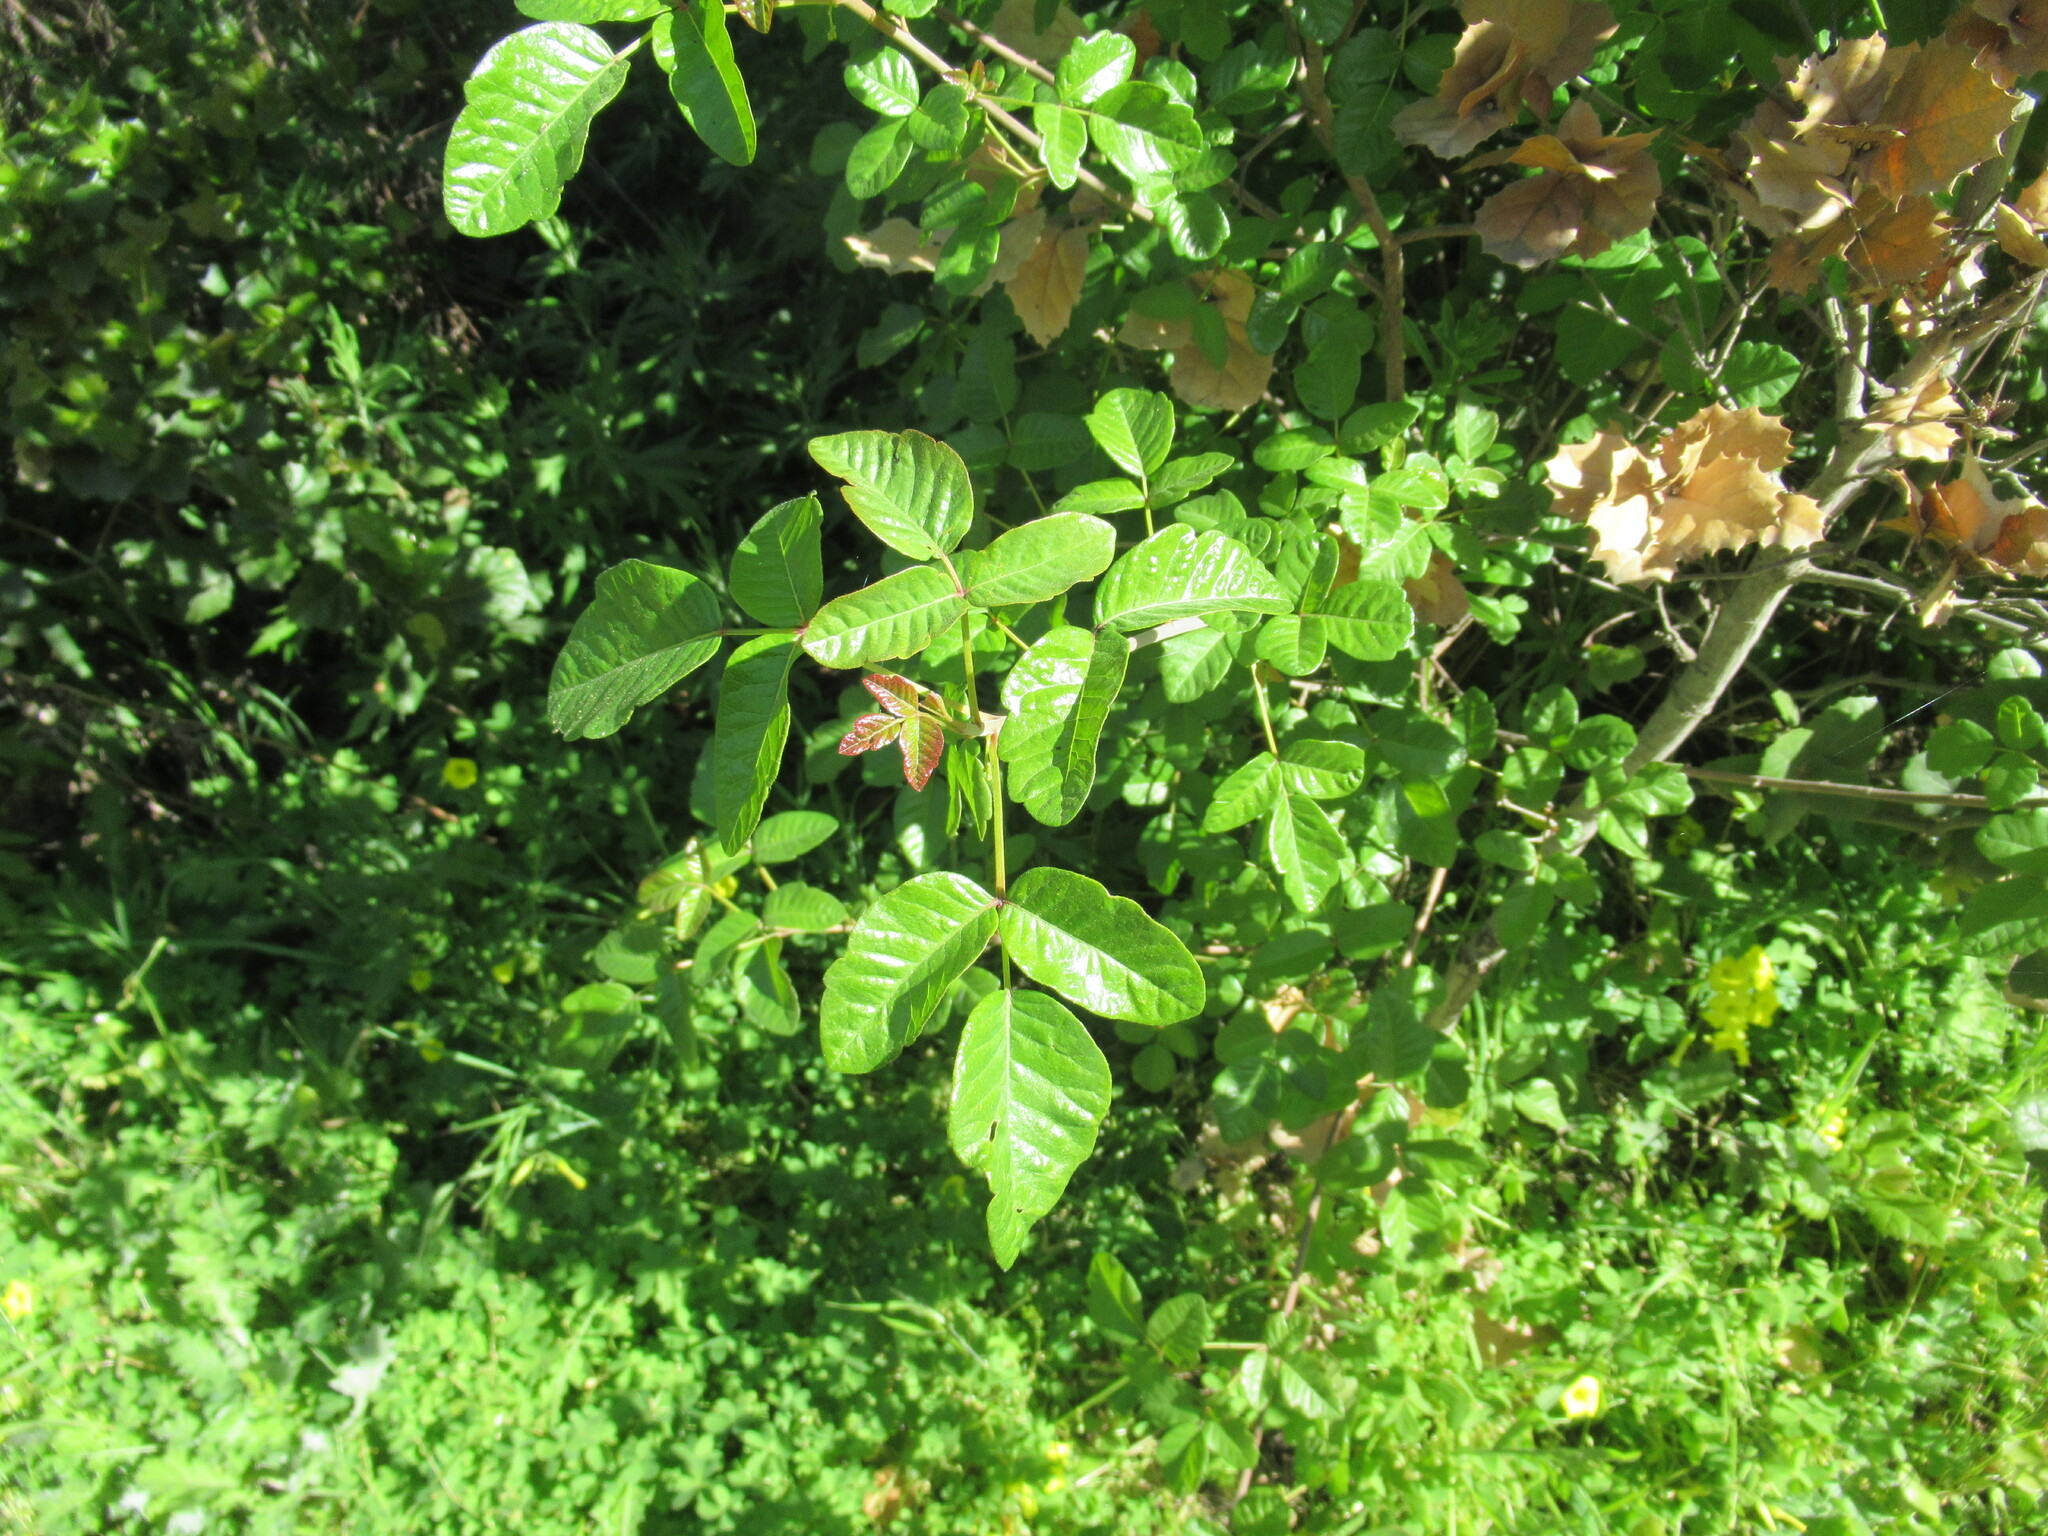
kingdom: Plantae
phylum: Tracheophyta
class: Magnoliopsida
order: Sapindales
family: Anacardiaceae
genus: Toxicodendron
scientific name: Toxicodendron diversilobum
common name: Pacific poison-oak
